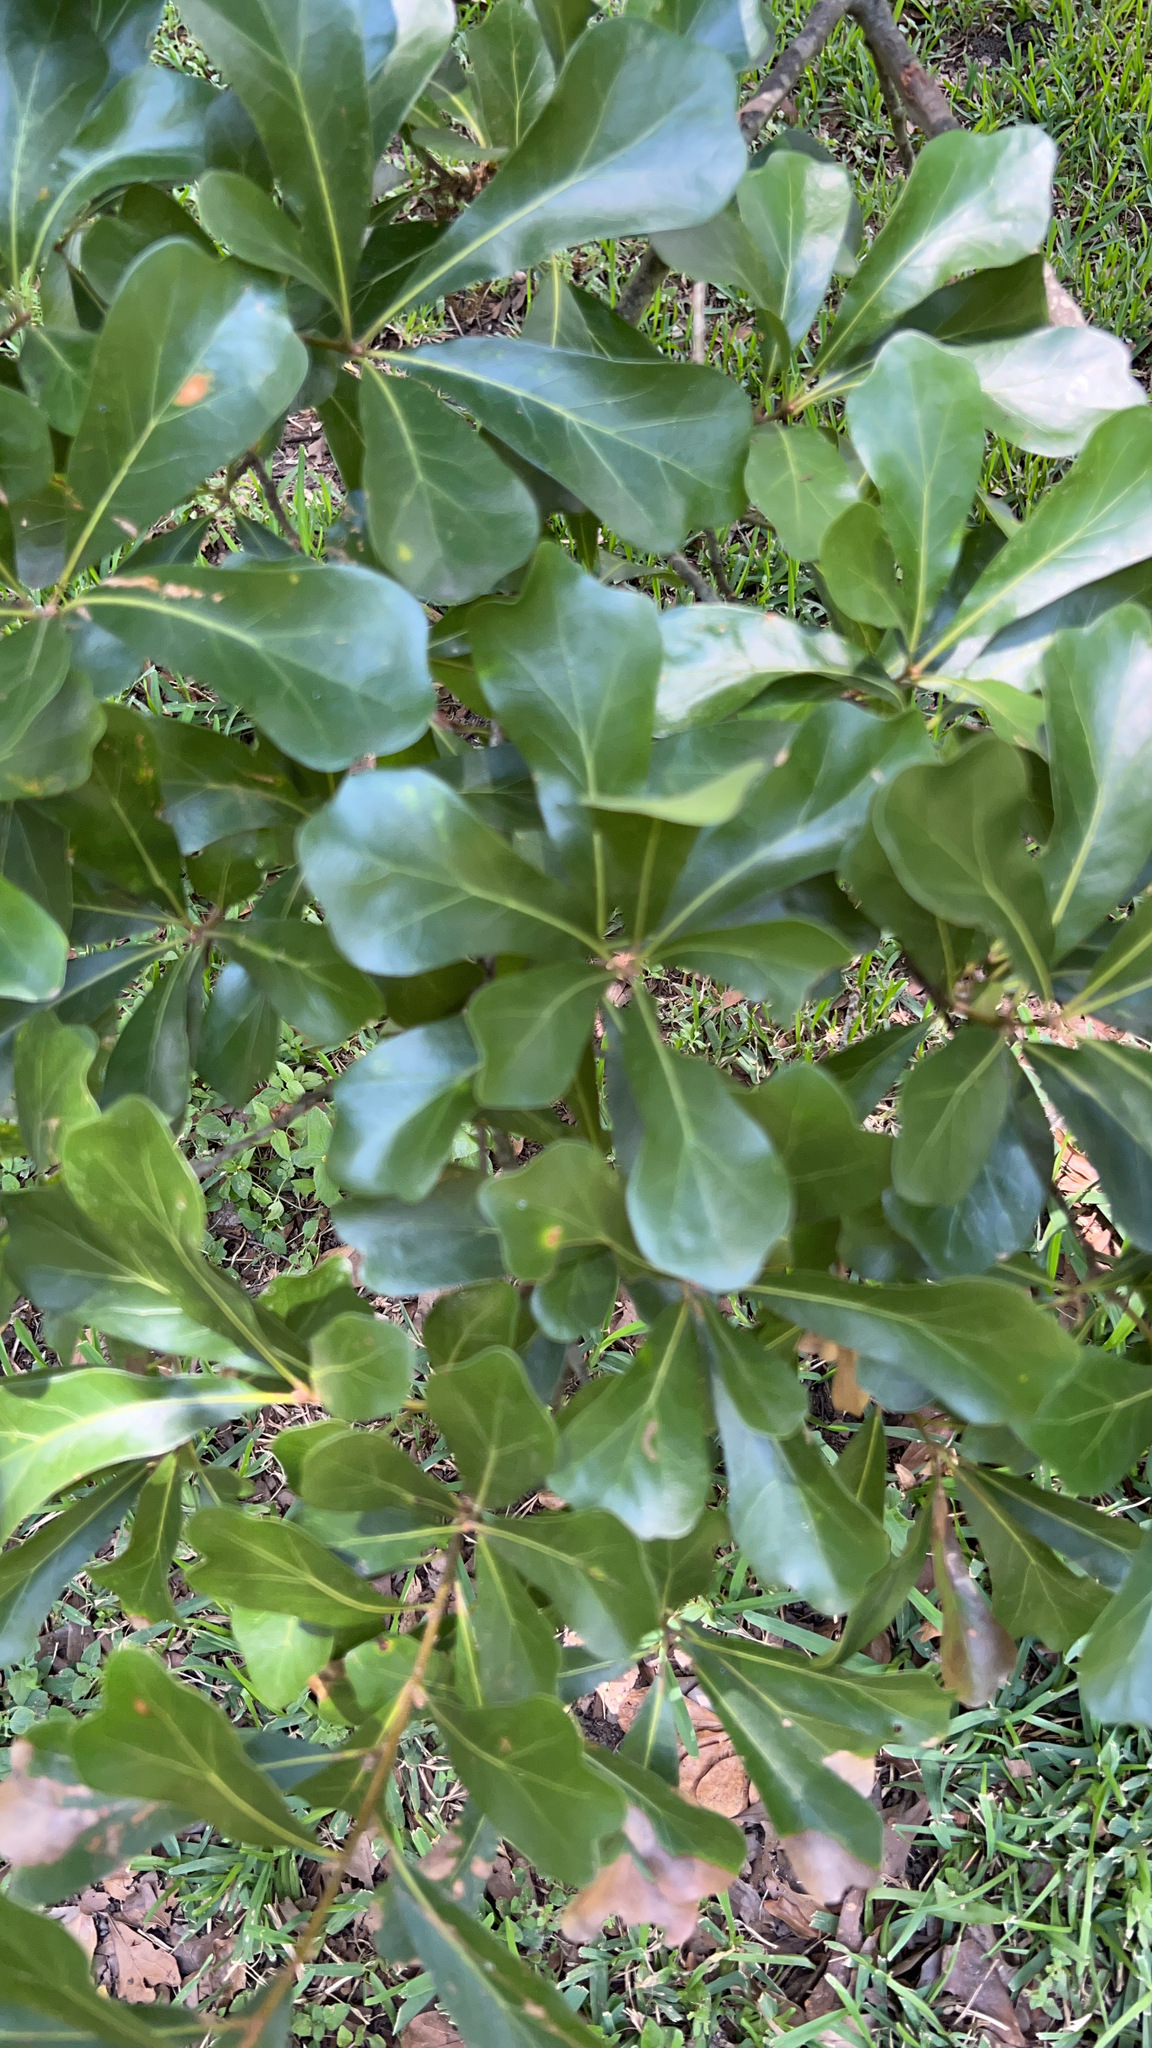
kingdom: Plantae
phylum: Tracheophyta
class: Magnoliopsida
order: Fagales
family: Fagaceae
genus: Quercus
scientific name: Quercus nigra
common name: Water oak
